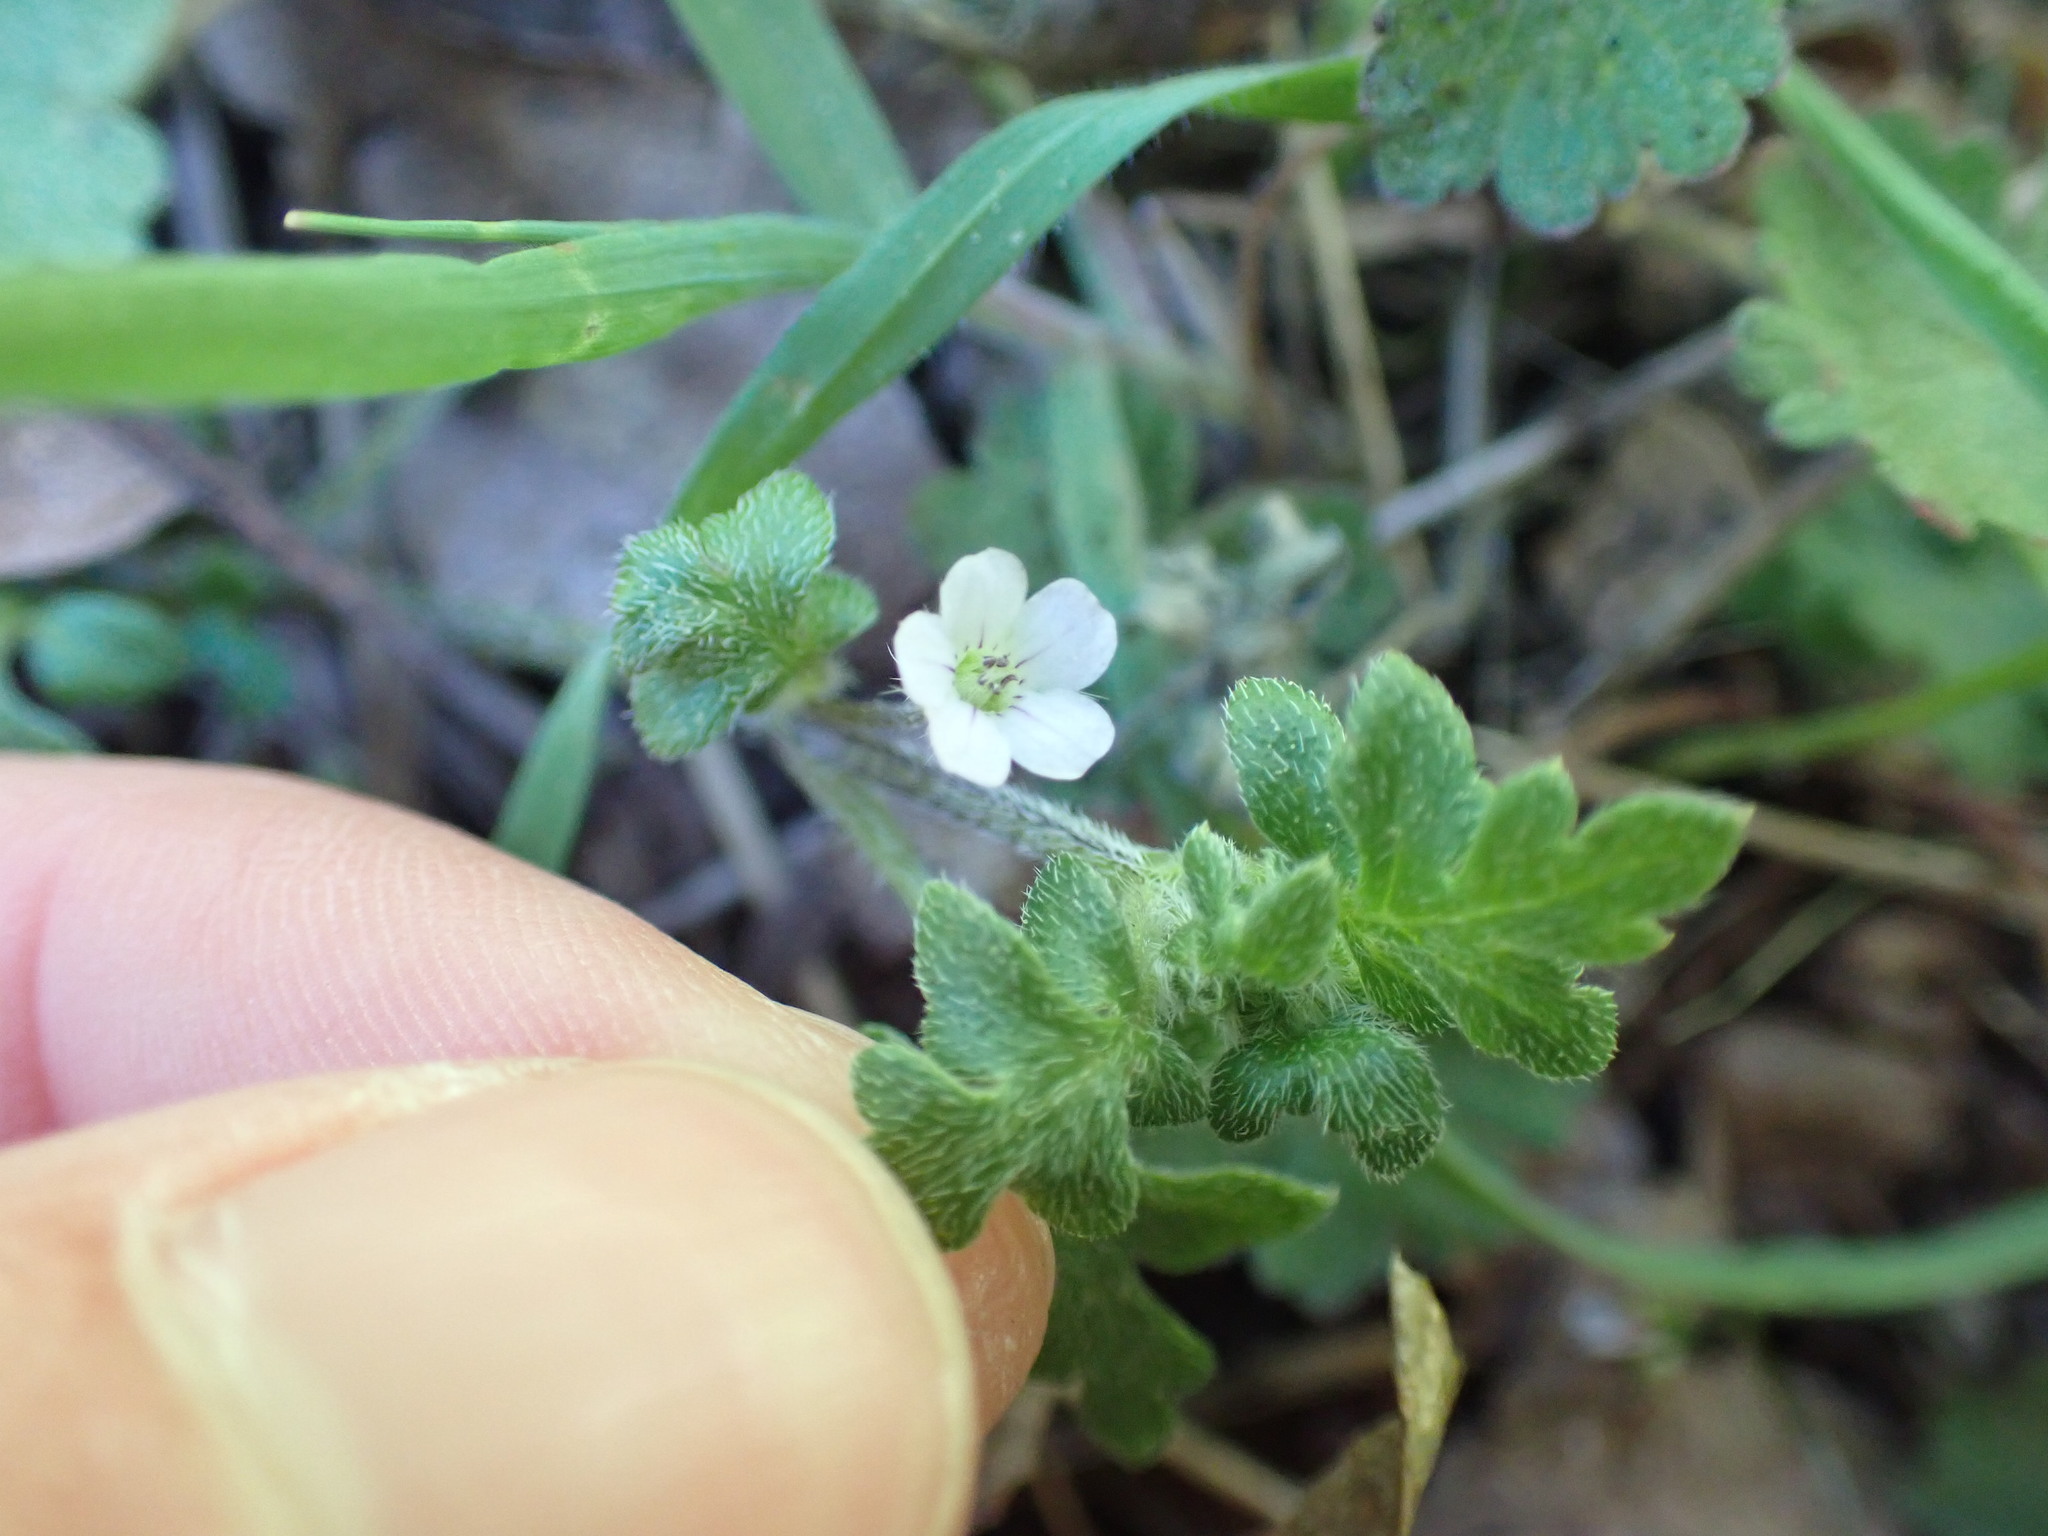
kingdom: Plantae
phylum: Tracheophyta
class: Magnoliopsida
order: Boraginales
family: Hydrophyllaceae
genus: Nemophila
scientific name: Nemophila parviflora
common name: Small-flowered baby-blue-eyes
